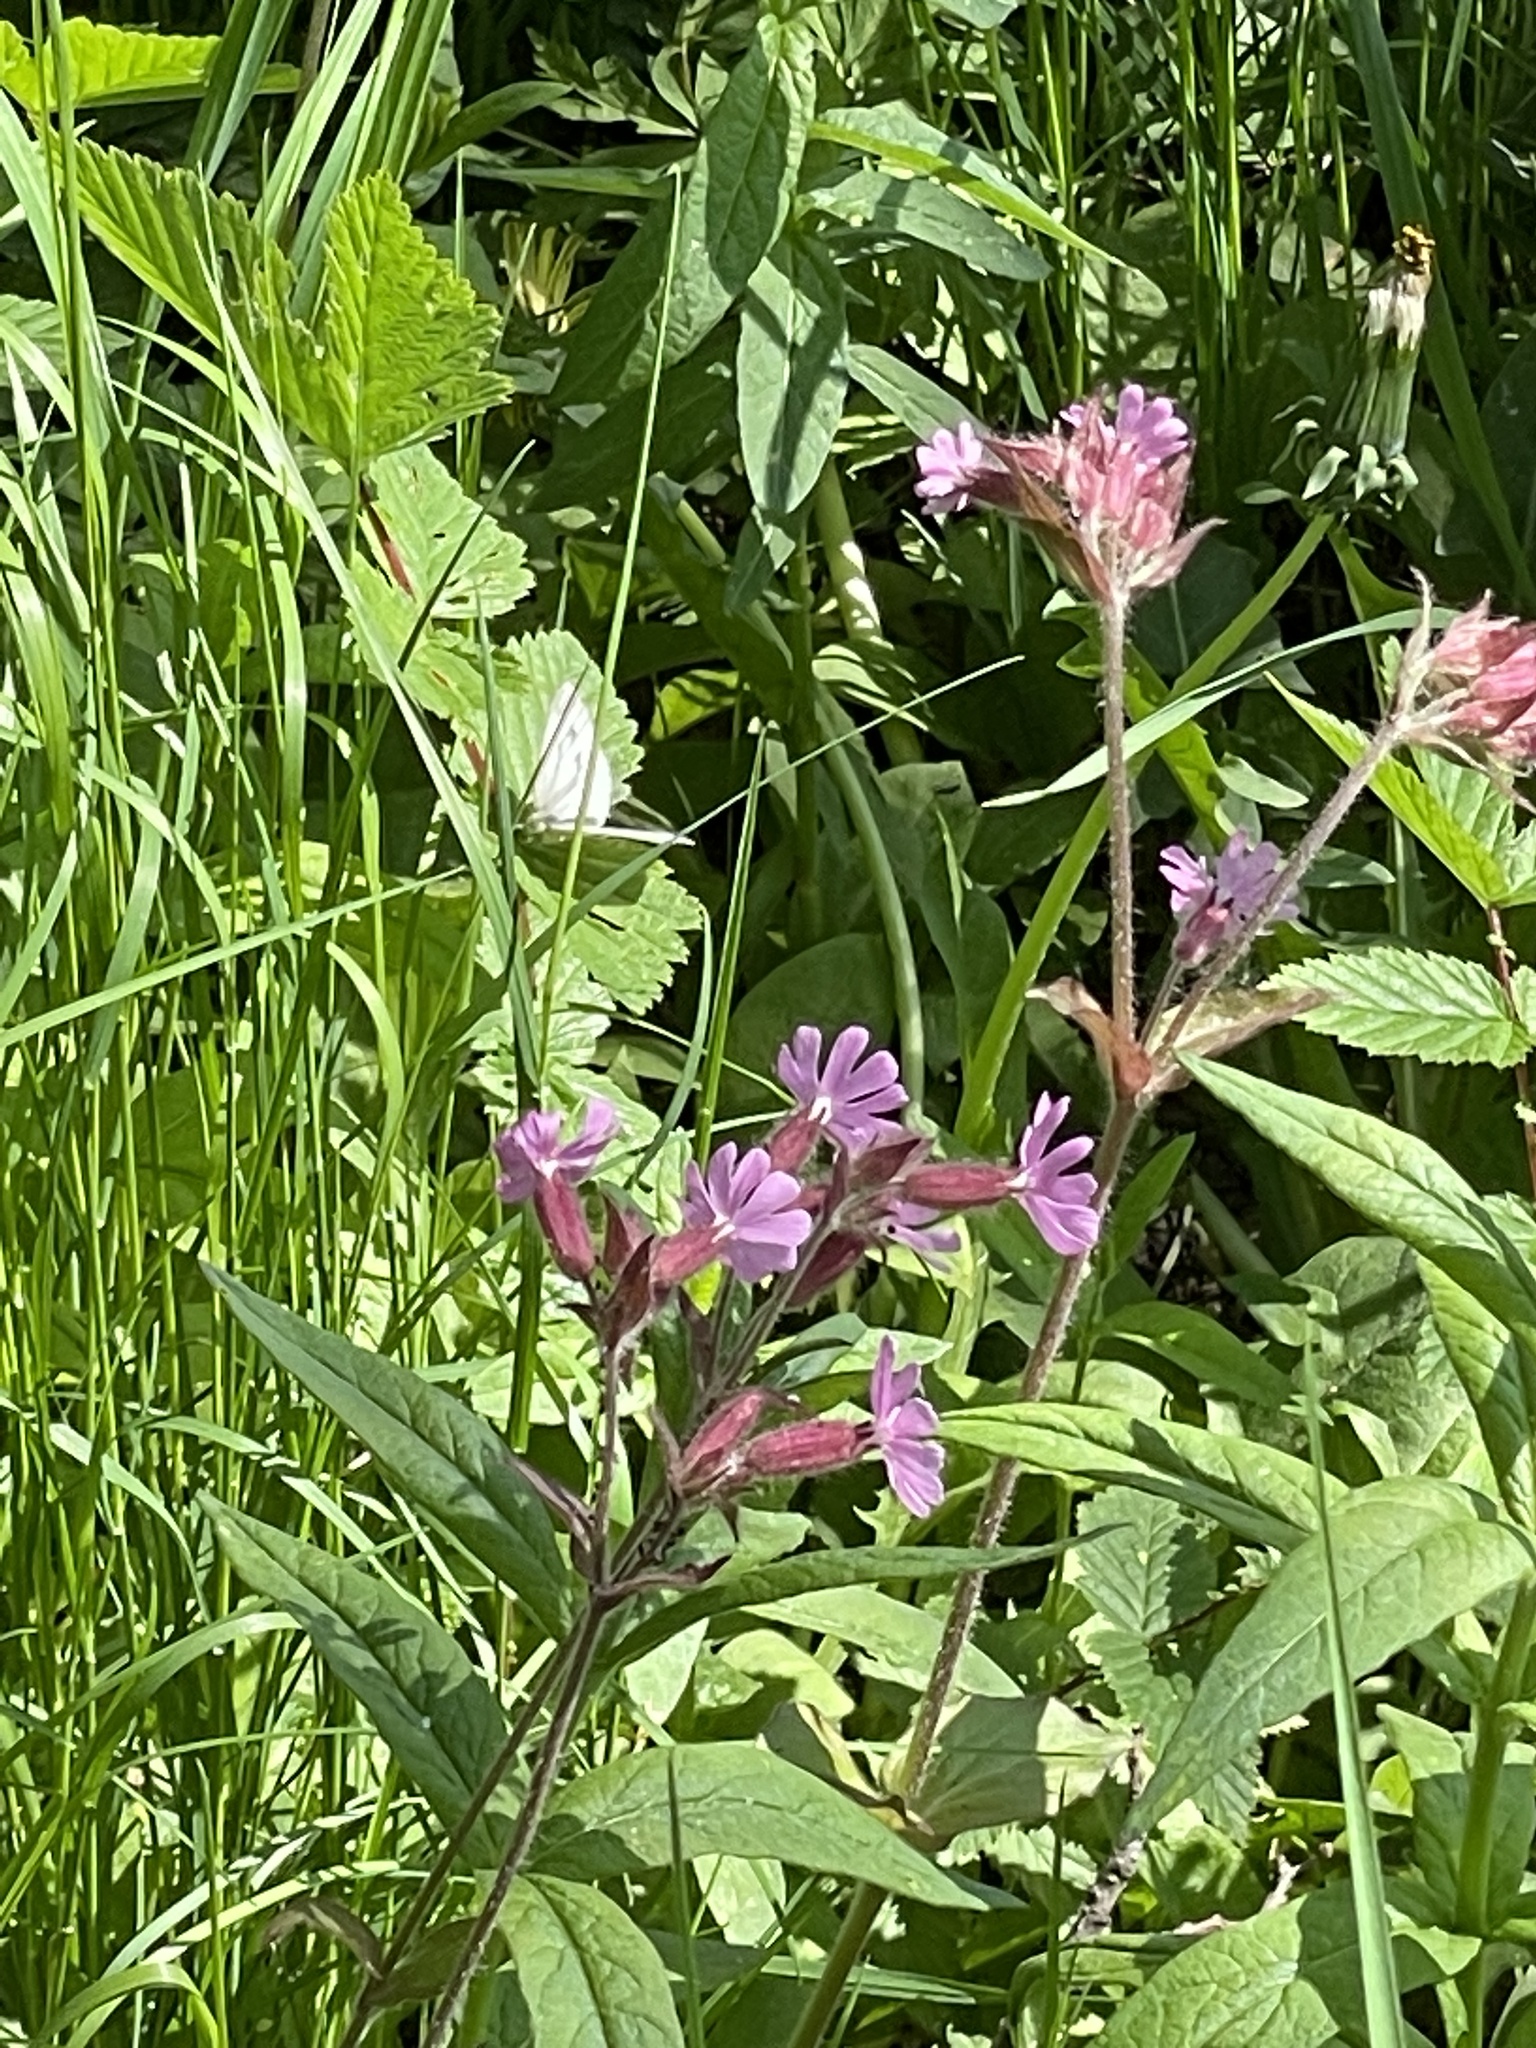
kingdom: Animalia
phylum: Arthropoda
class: Insecta
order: Lepidoptera
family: Pieridae
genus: Pieris
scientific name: Pieris napi
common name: Green-veined white
